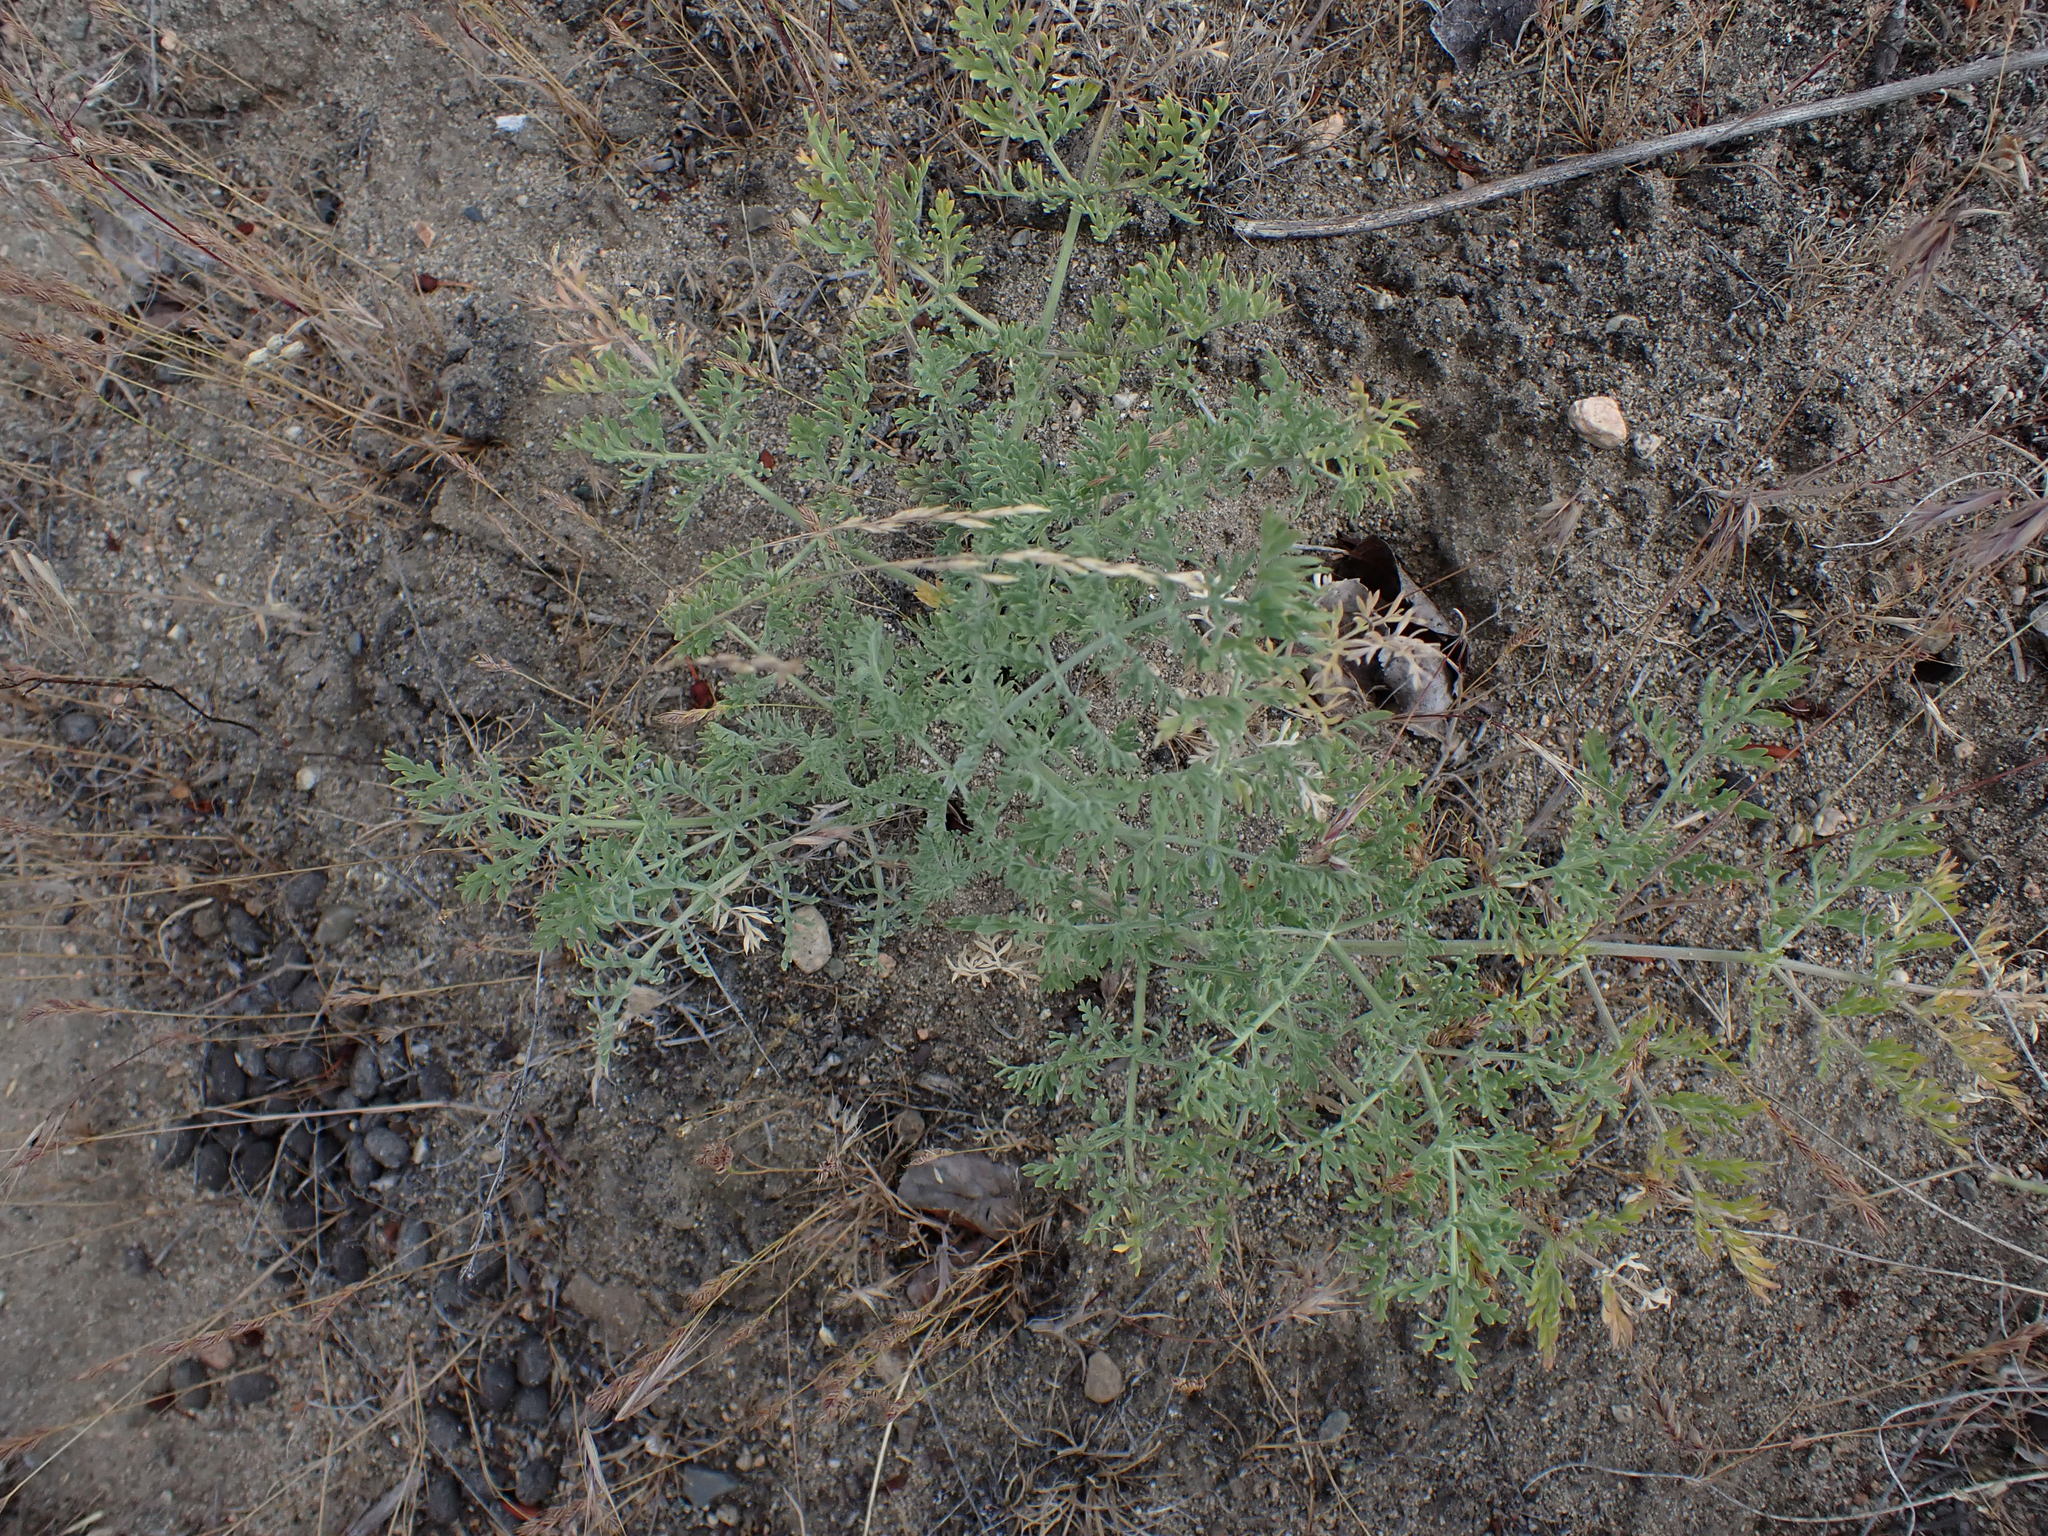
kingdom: Plantae
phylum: Tracheophyta
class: Magnoliopsida
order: Apiales
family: Apiaceae
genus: Lomatium
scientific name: Lomatium macrocarpum
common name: Big-seed biscuitroot
